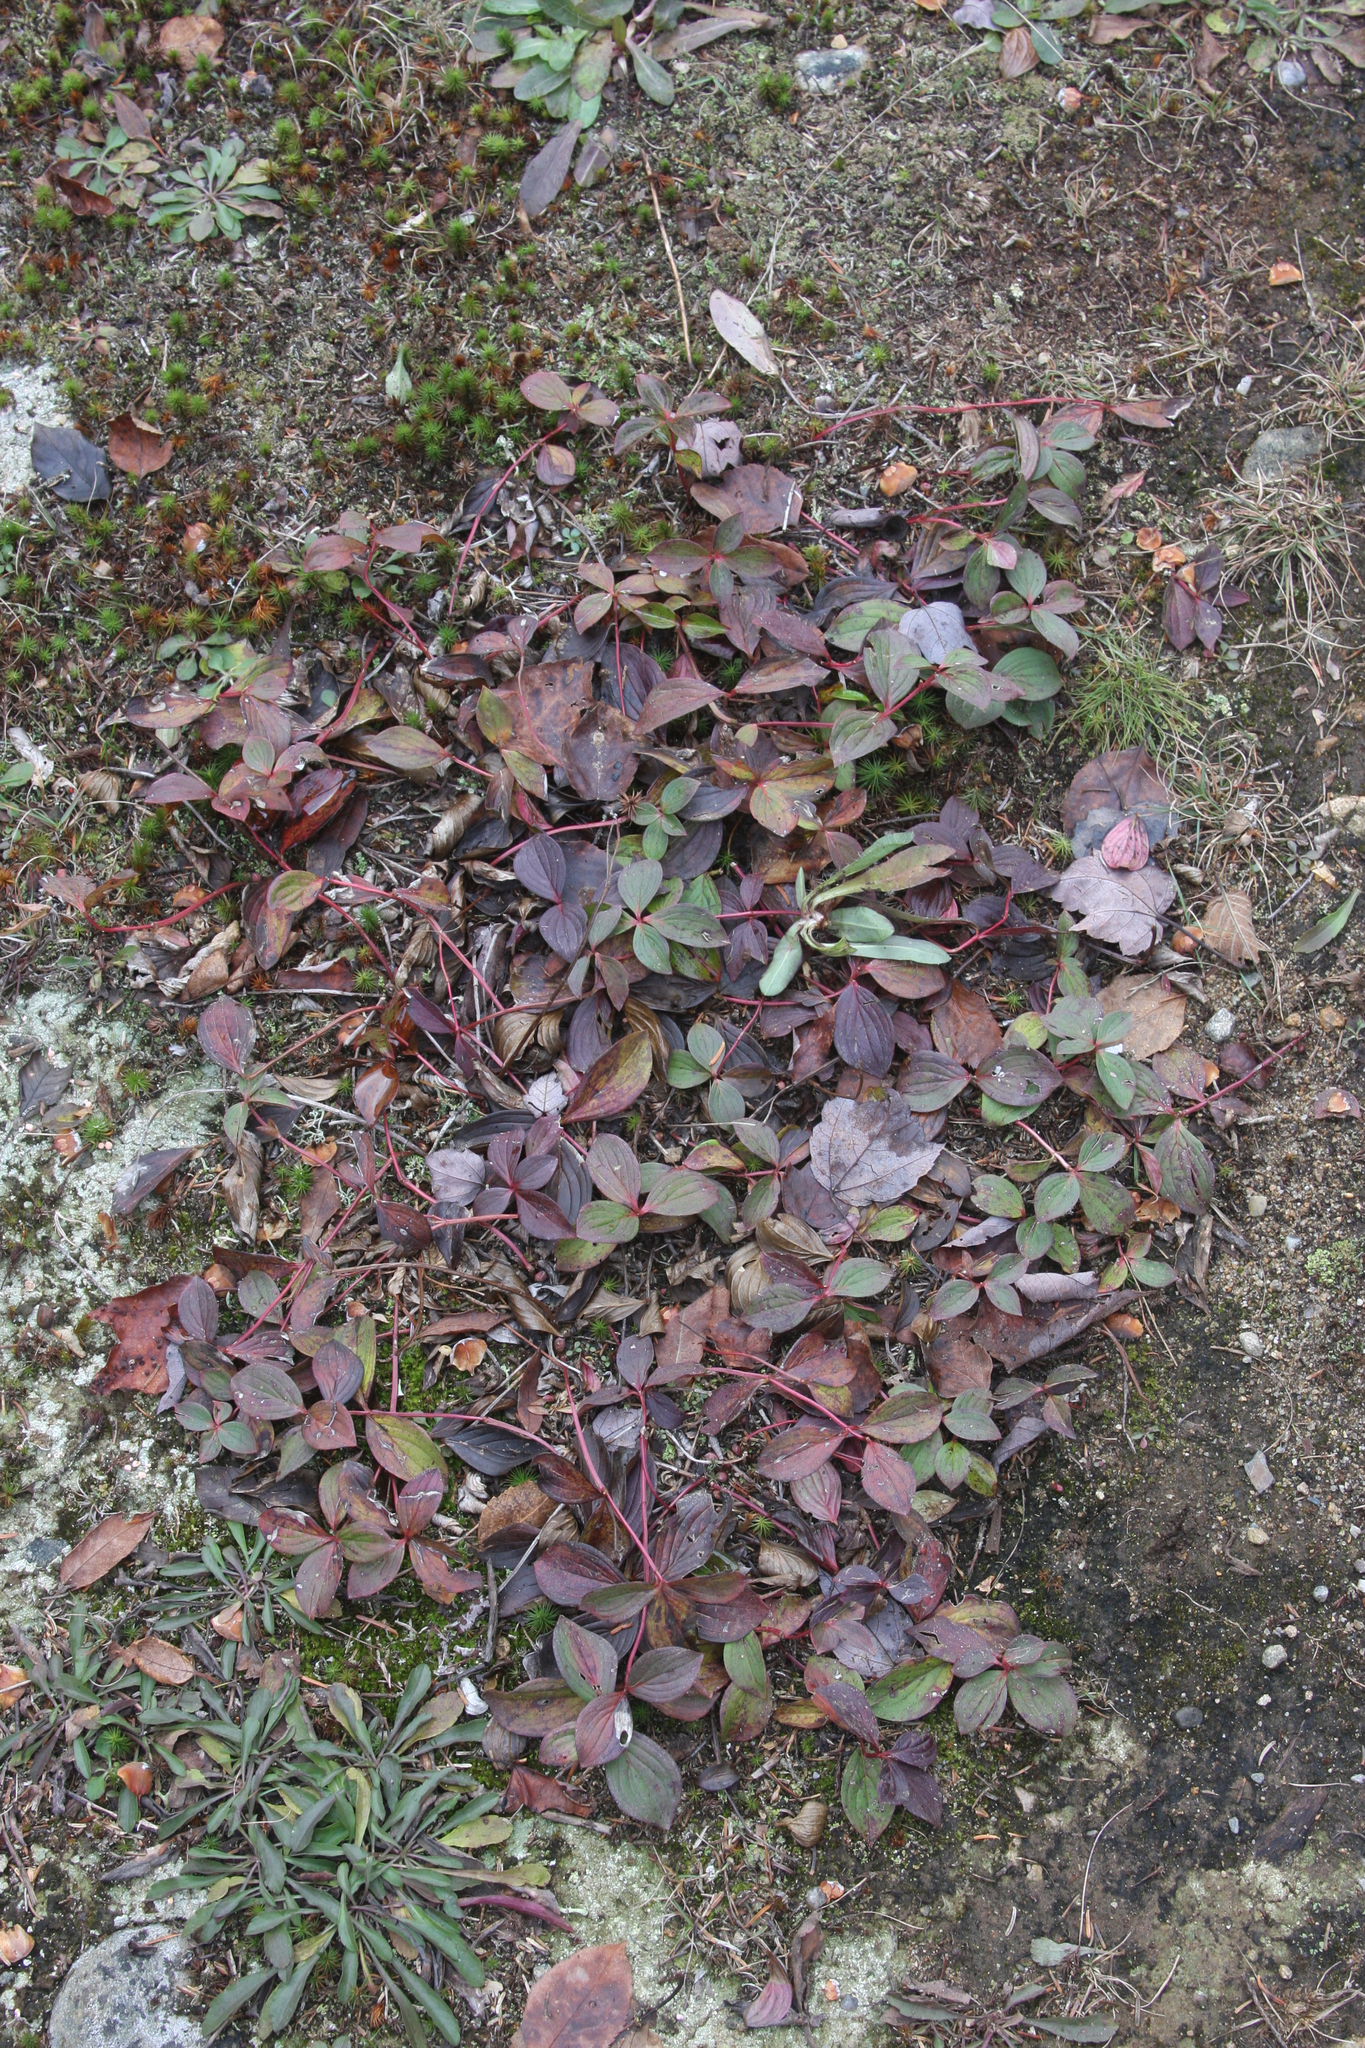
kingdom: Plantae
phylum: Tracheophyta
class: Magnoliopsida
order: Cornales
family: Cornaceae
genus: Cornus
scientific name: Cornus canadensis
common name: Creeping dogwood
